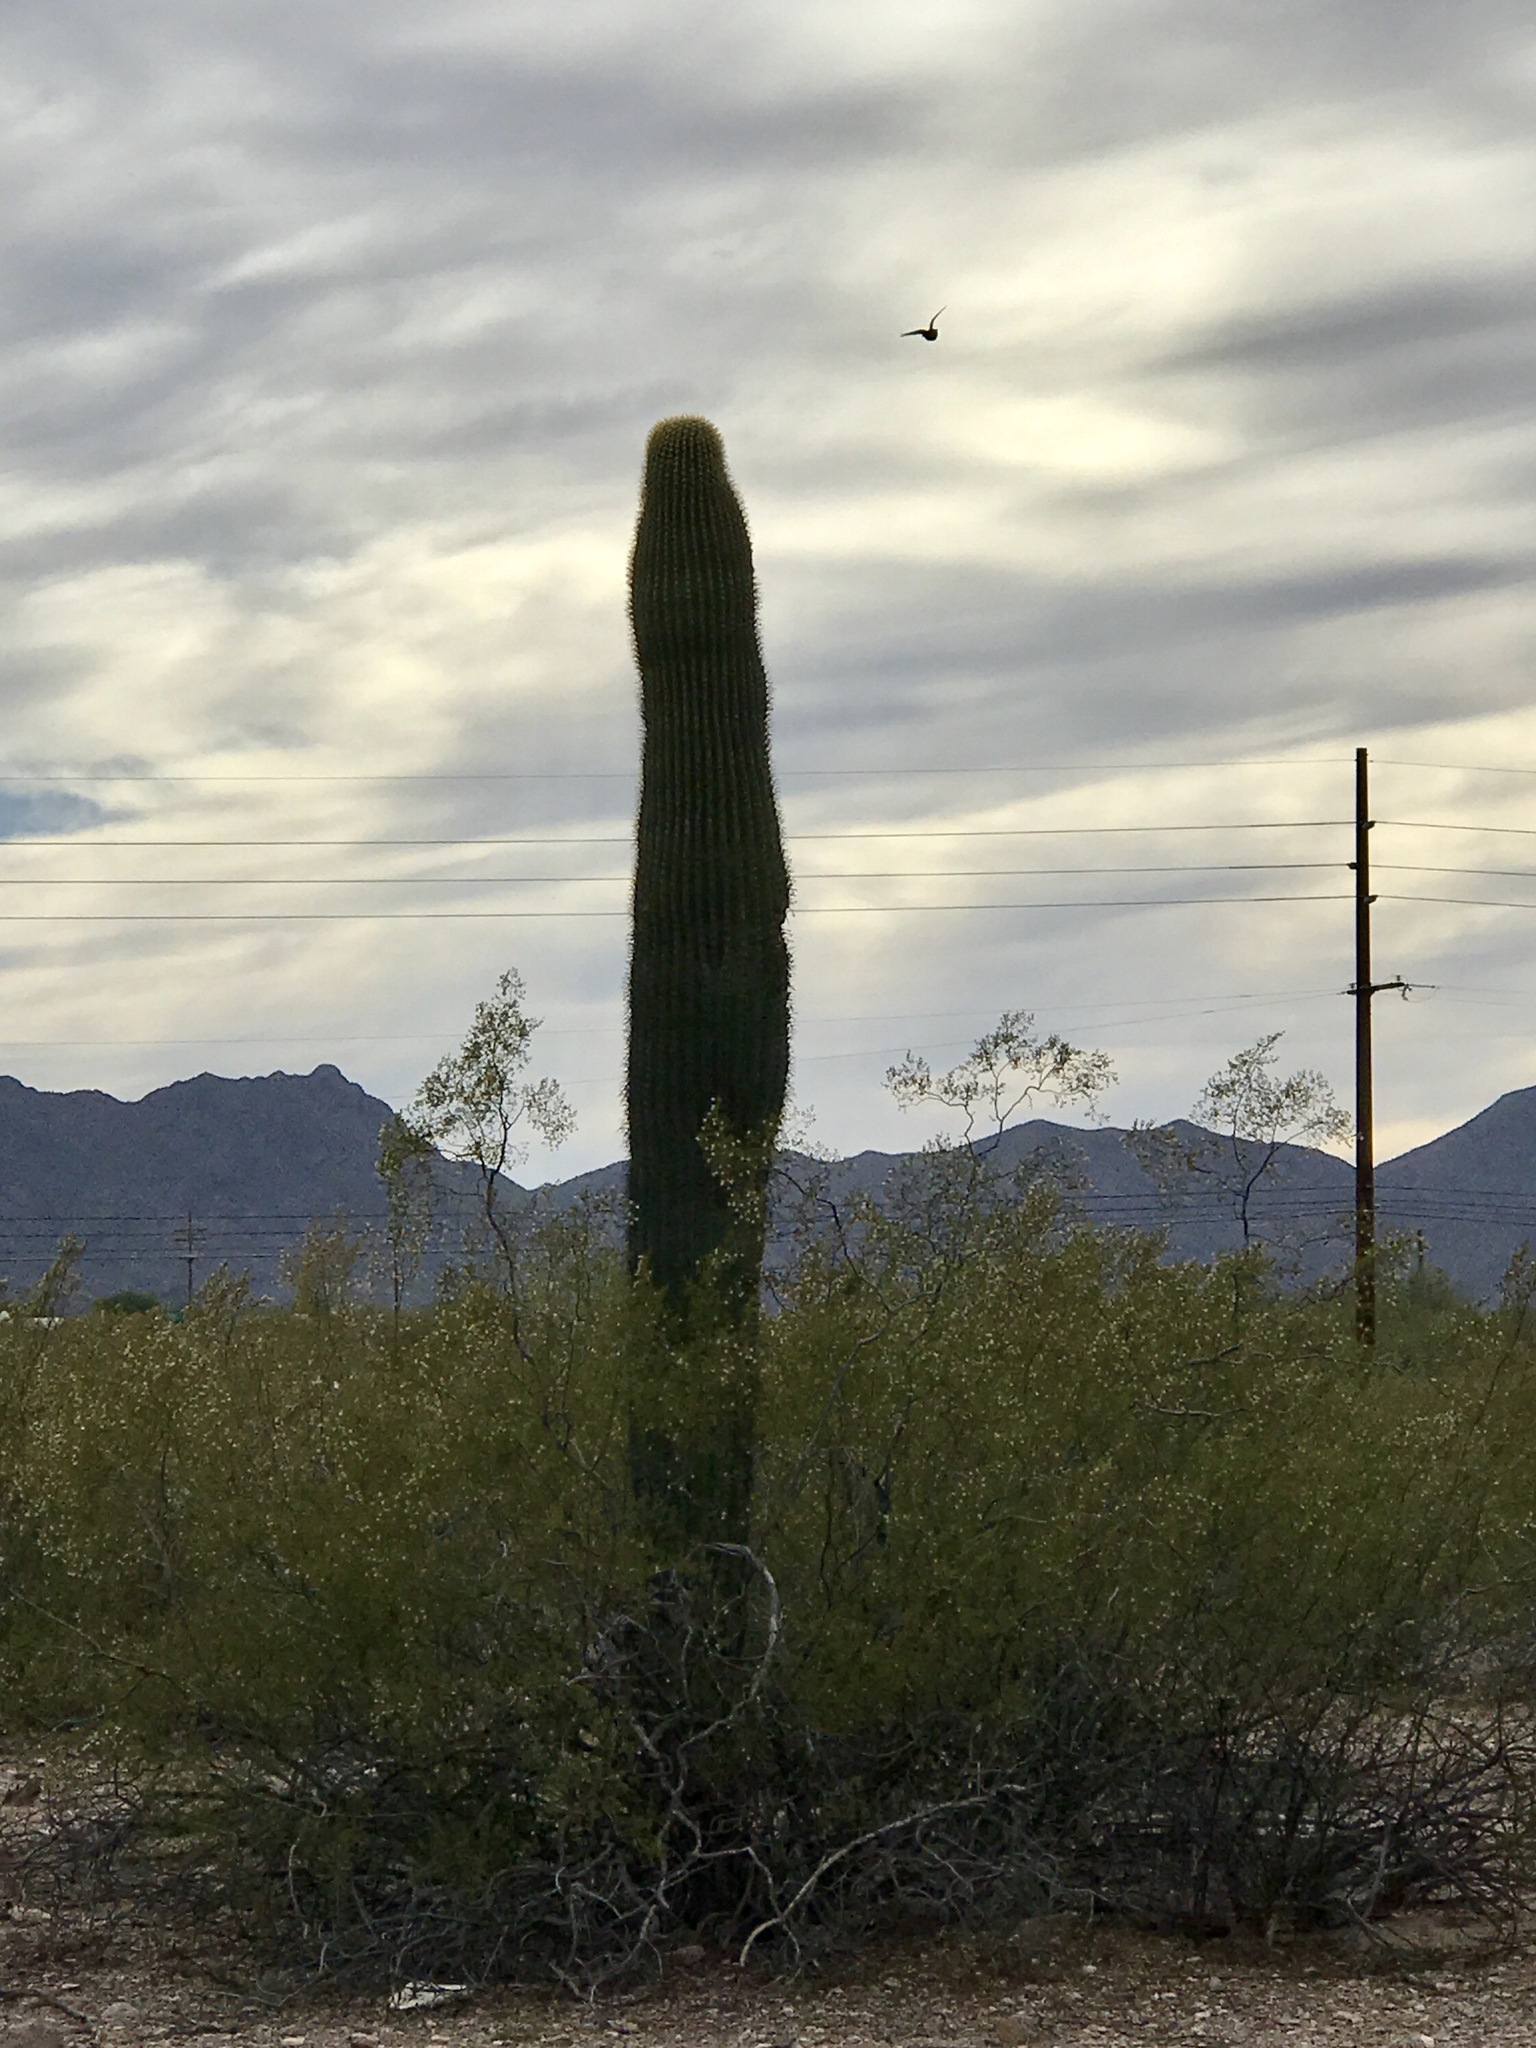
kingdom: Plantae
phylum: Tracheophyta
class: Magnoliopsida
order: Caryophyllales
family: Cactaceae
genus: Carnegiea
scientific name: Carnegiea gigantea
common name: Saguaro
